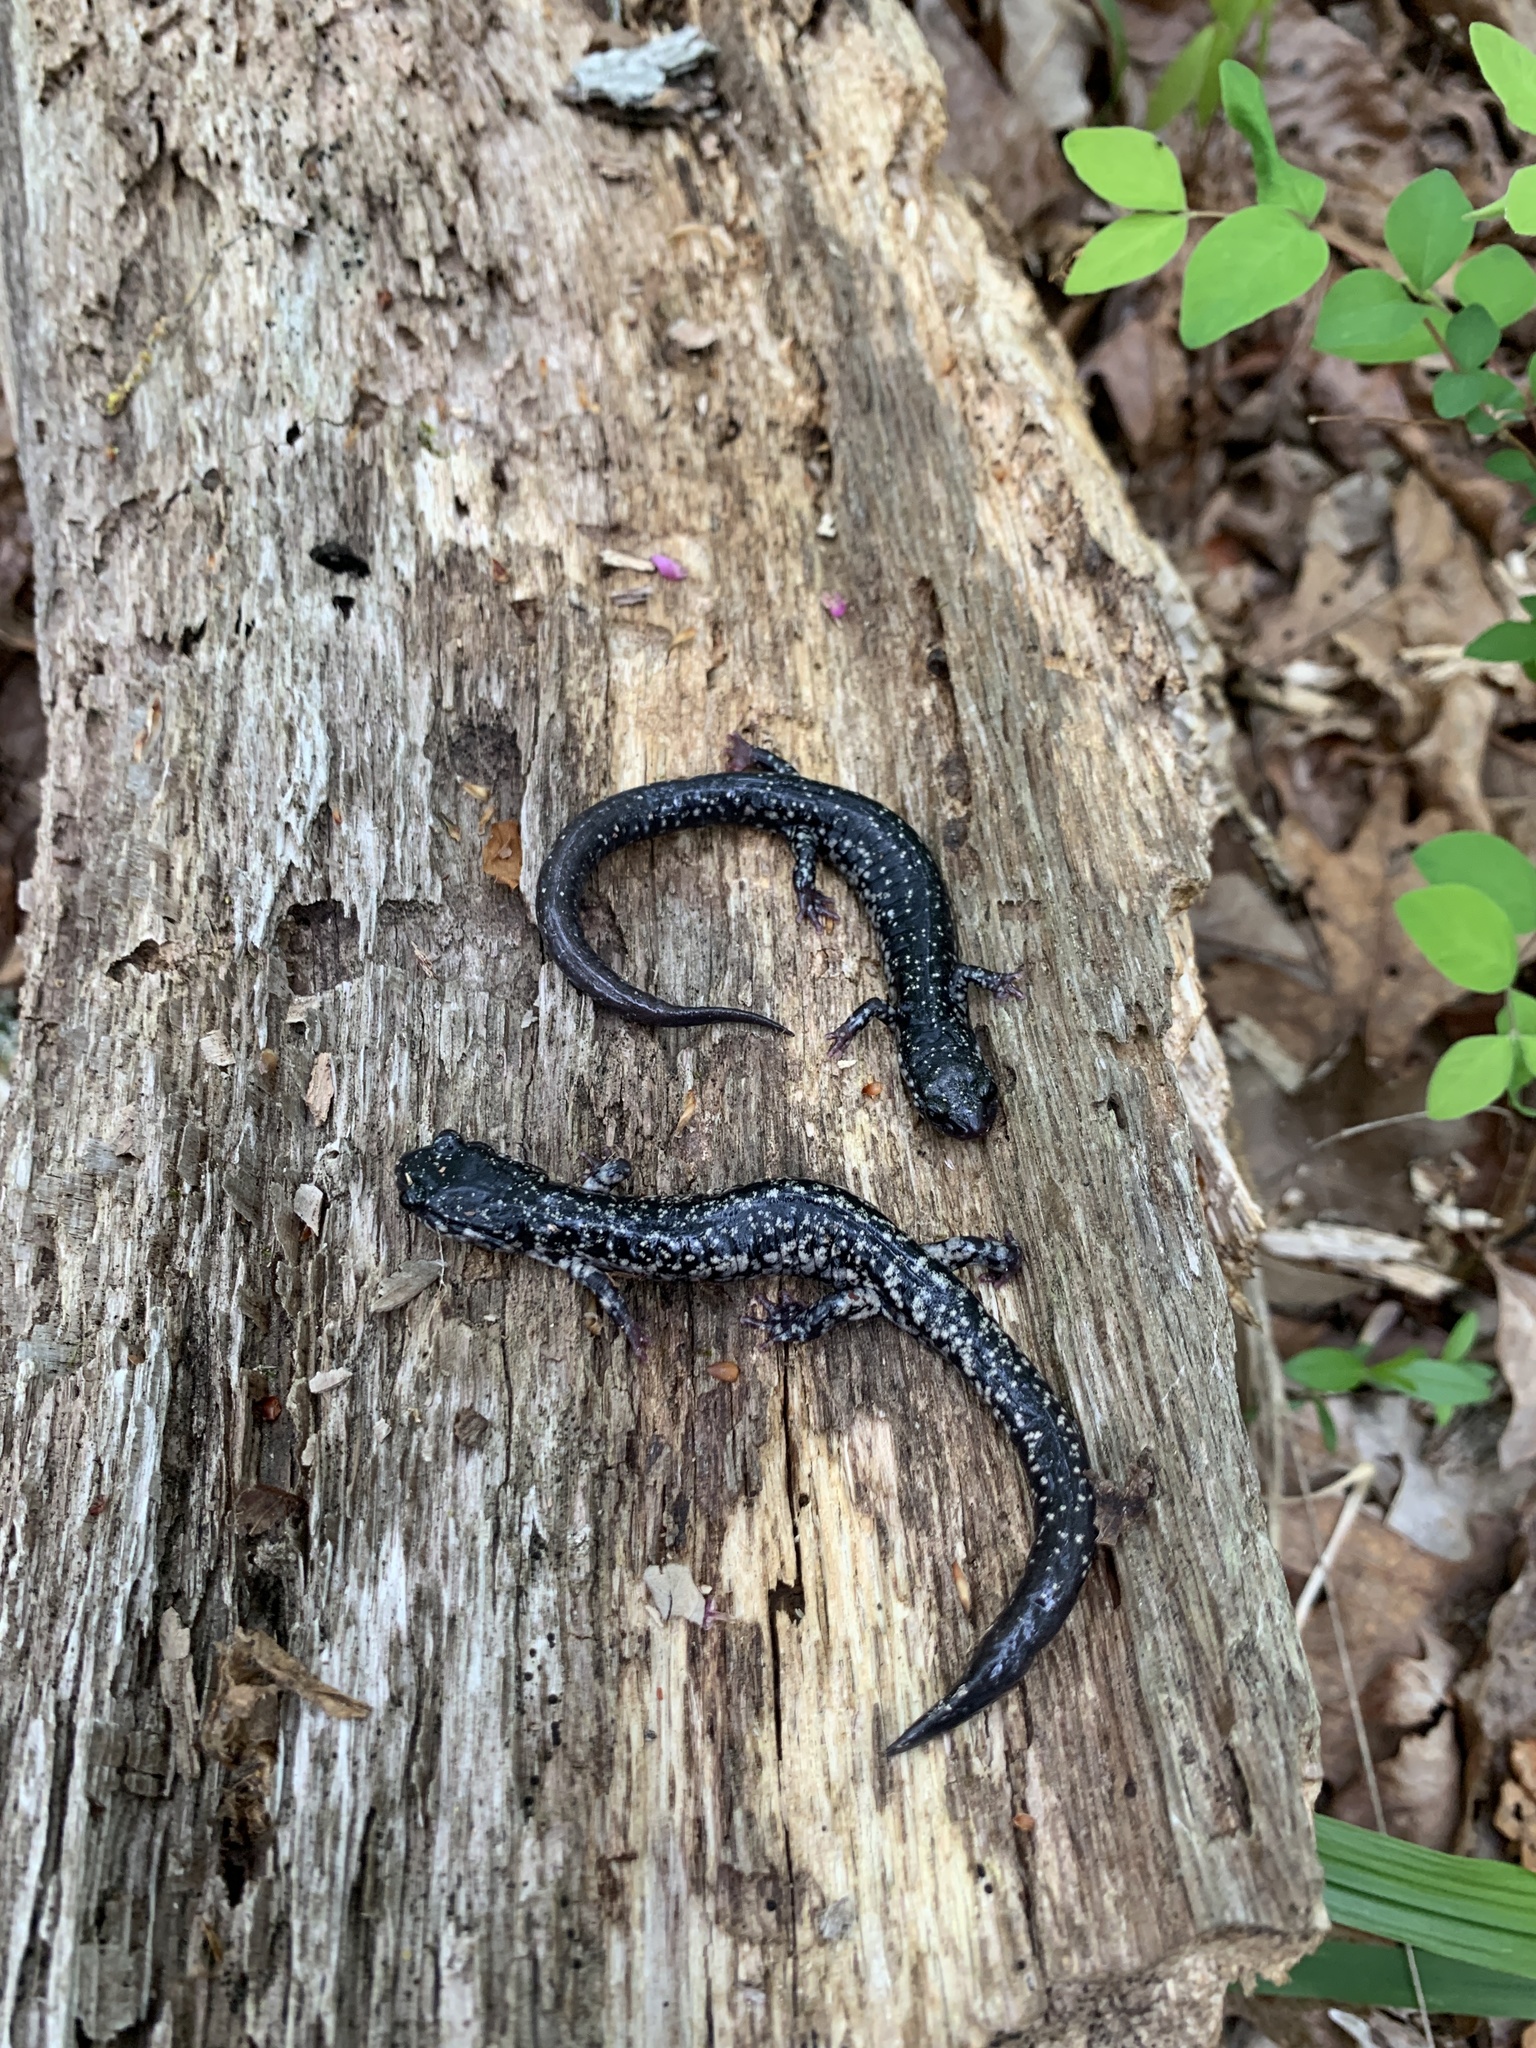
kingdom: Animalia
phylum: Chordata
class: Amphibia
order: Caudata
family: Plethodontidae
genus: Plethodon
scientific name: Plethodon glutinosus
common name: Northern slimy salamander
